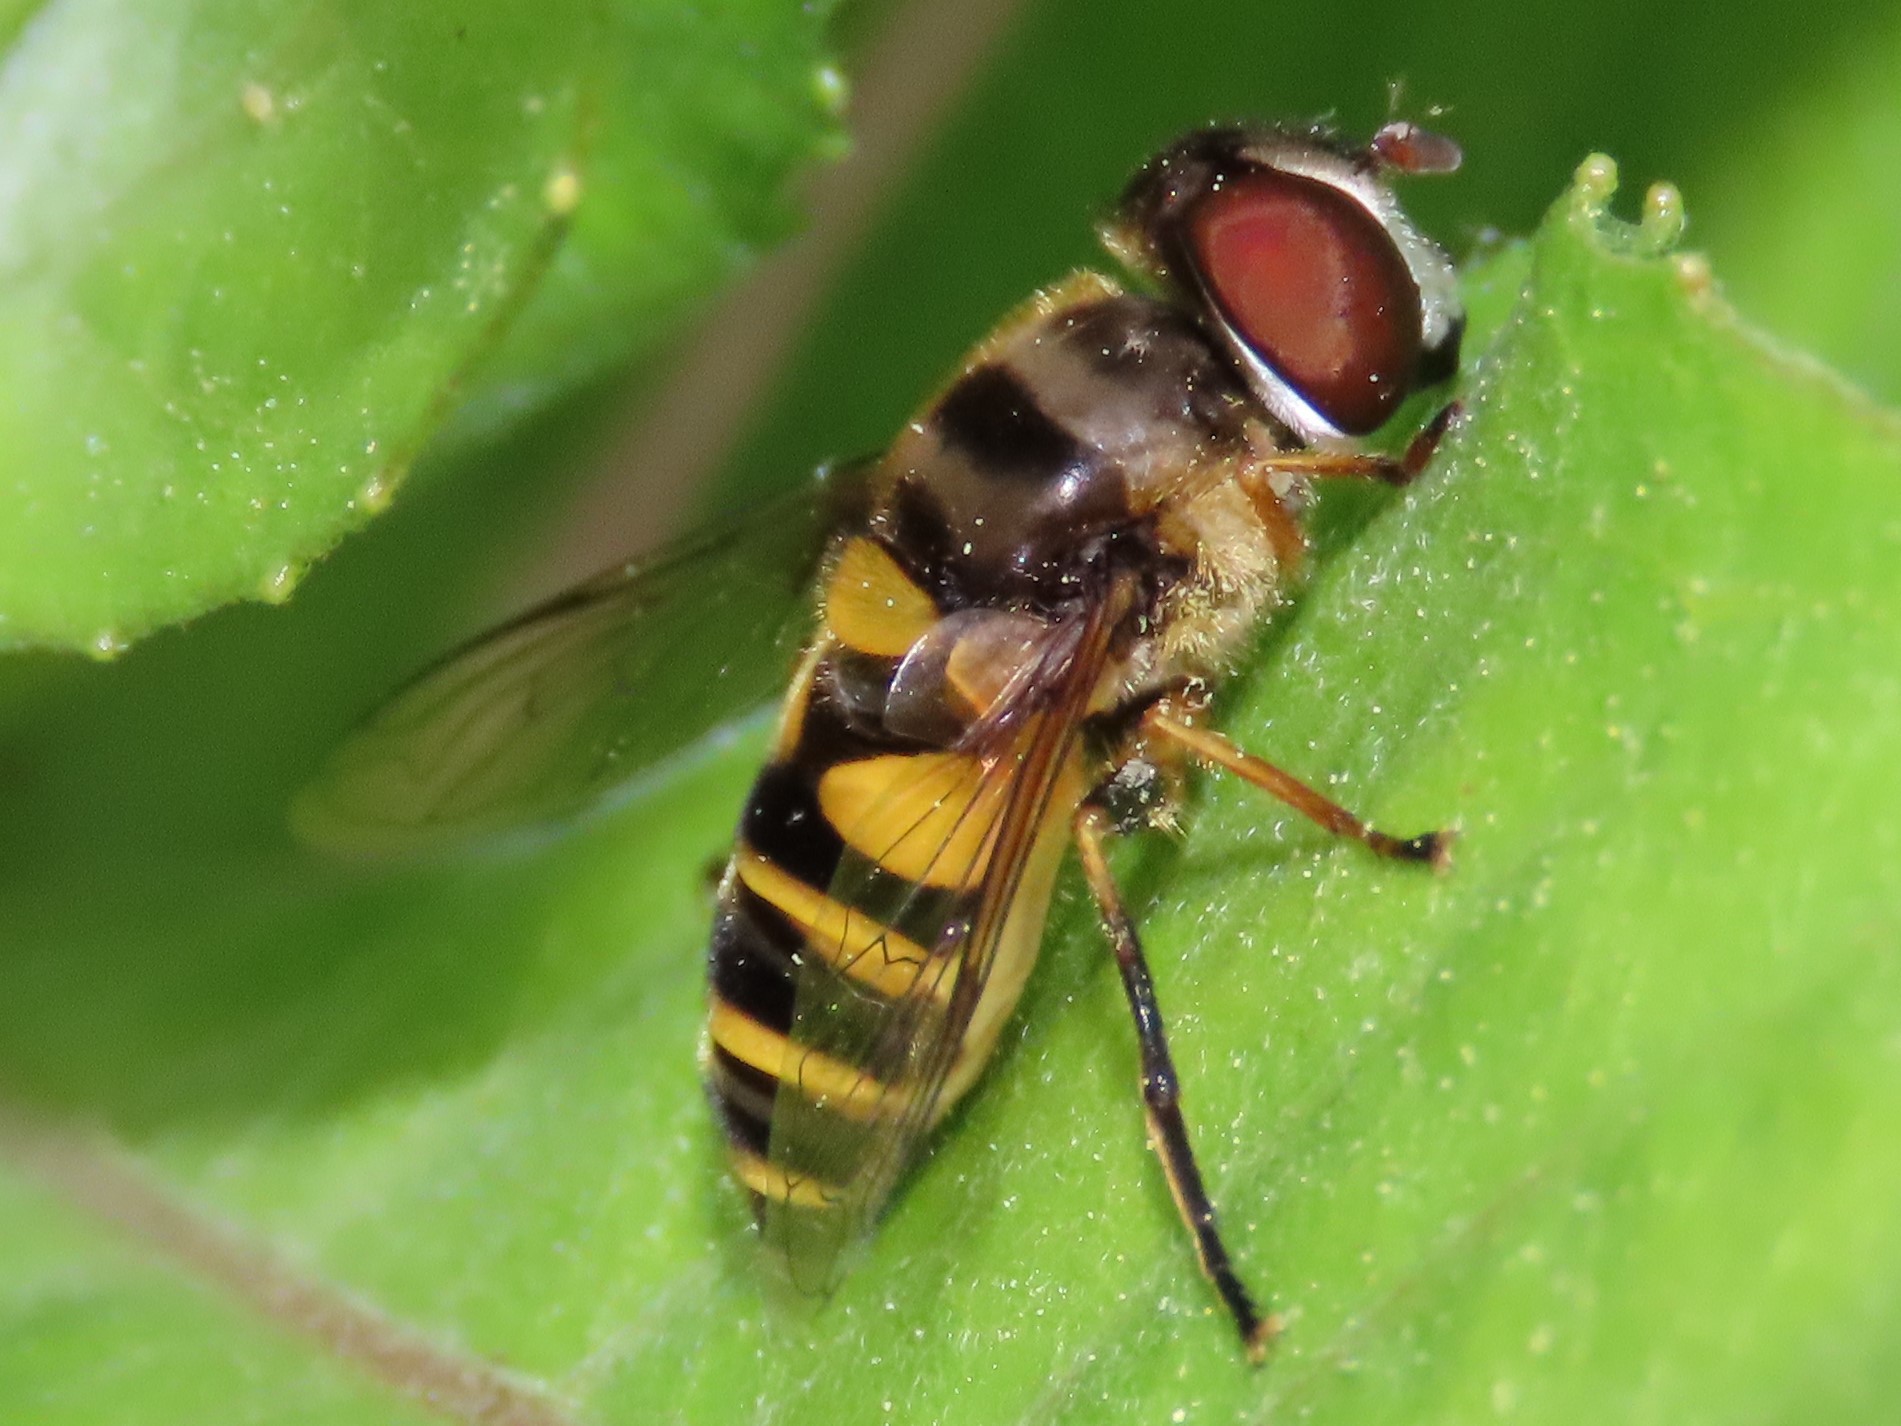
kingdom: Animalia
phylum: Arthropoda
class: Insecta
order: Diptera
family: Syrphidae
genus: Eristalis
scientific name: Eristalis transversa
